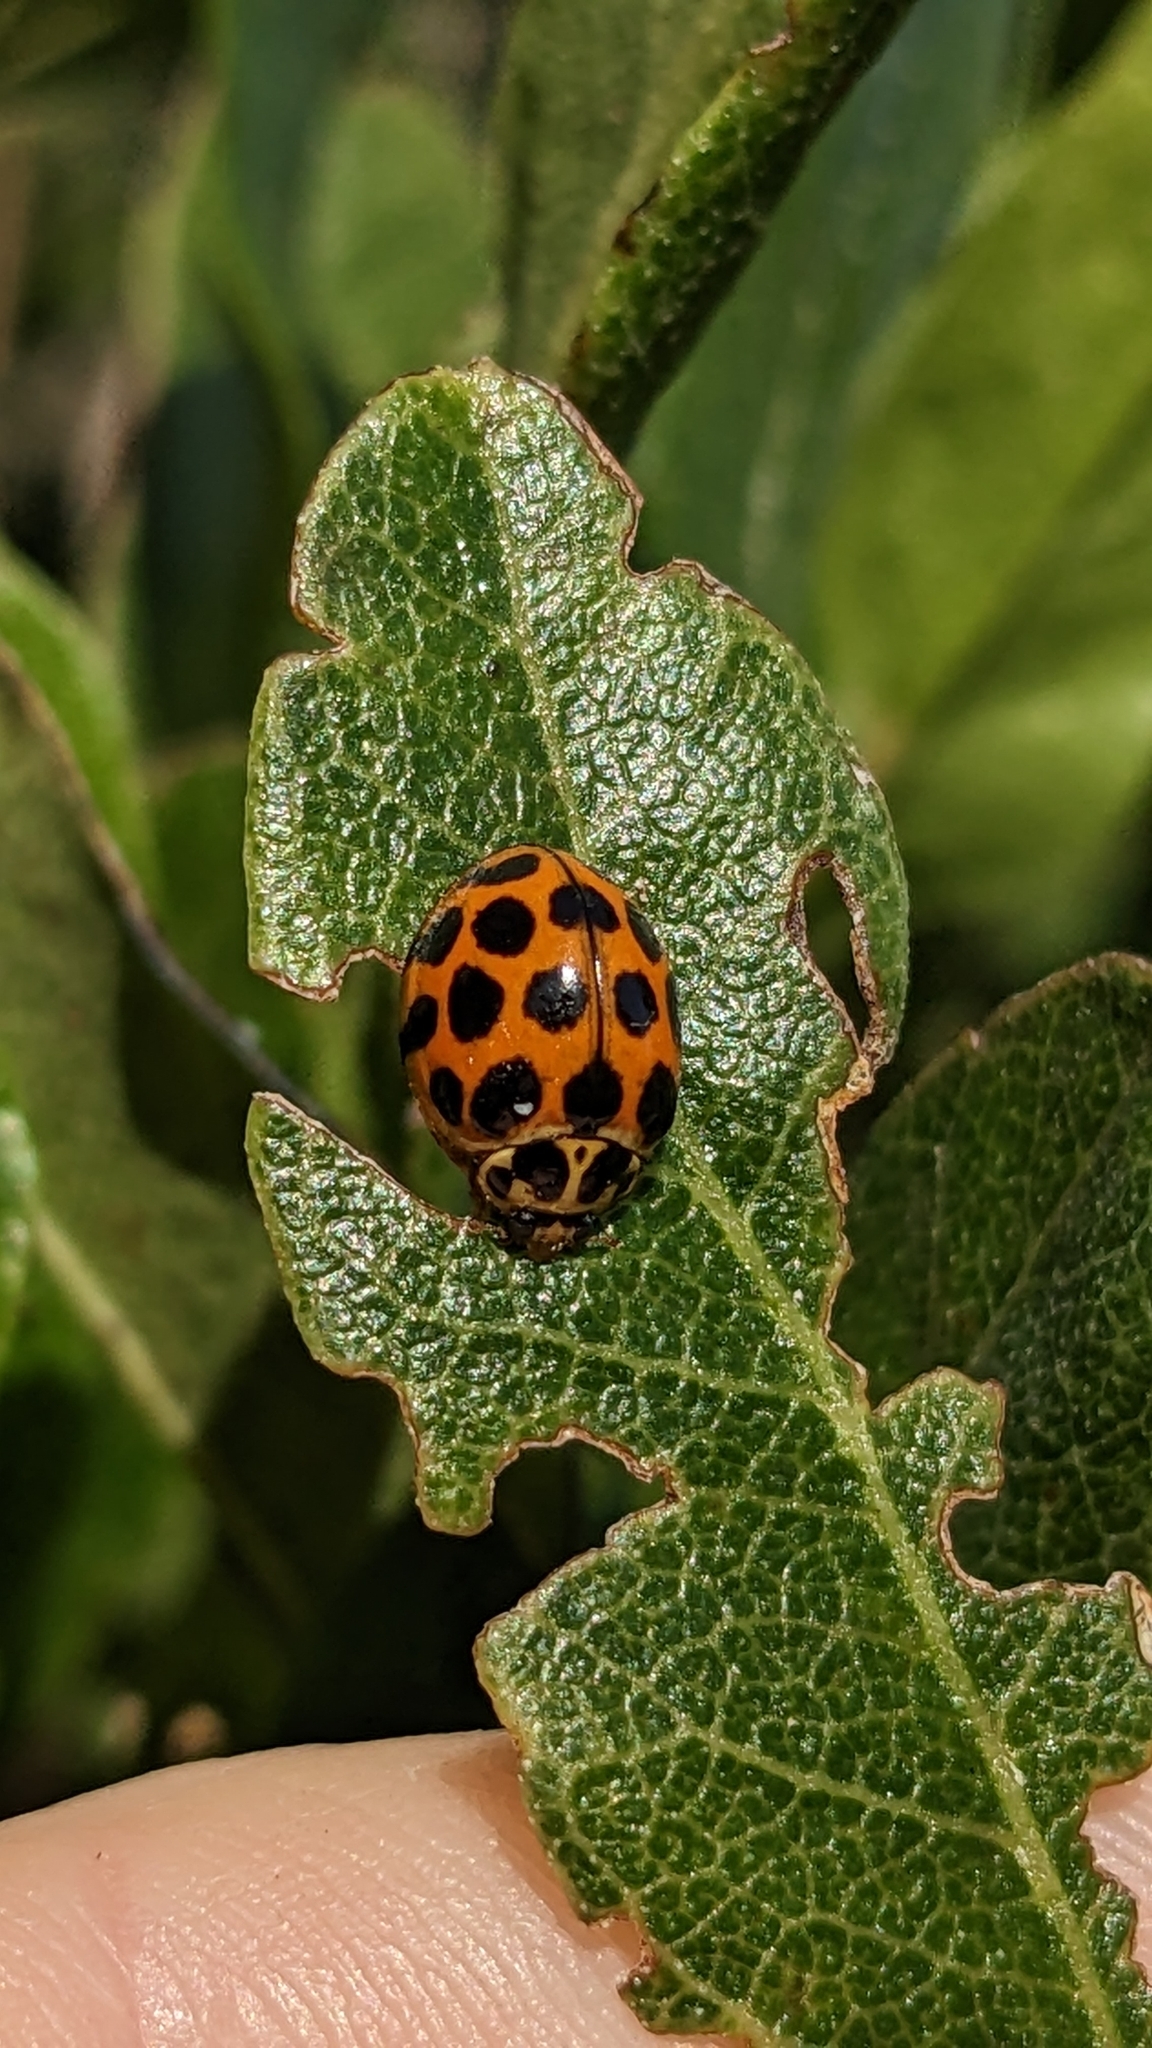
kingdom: Animalia
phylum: Arthropoda
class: Insecta
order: Coleoptera
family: Coccinellidae
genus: Harmonia
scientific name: Harmonia conformis
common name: Common spotted ladybird beetle
